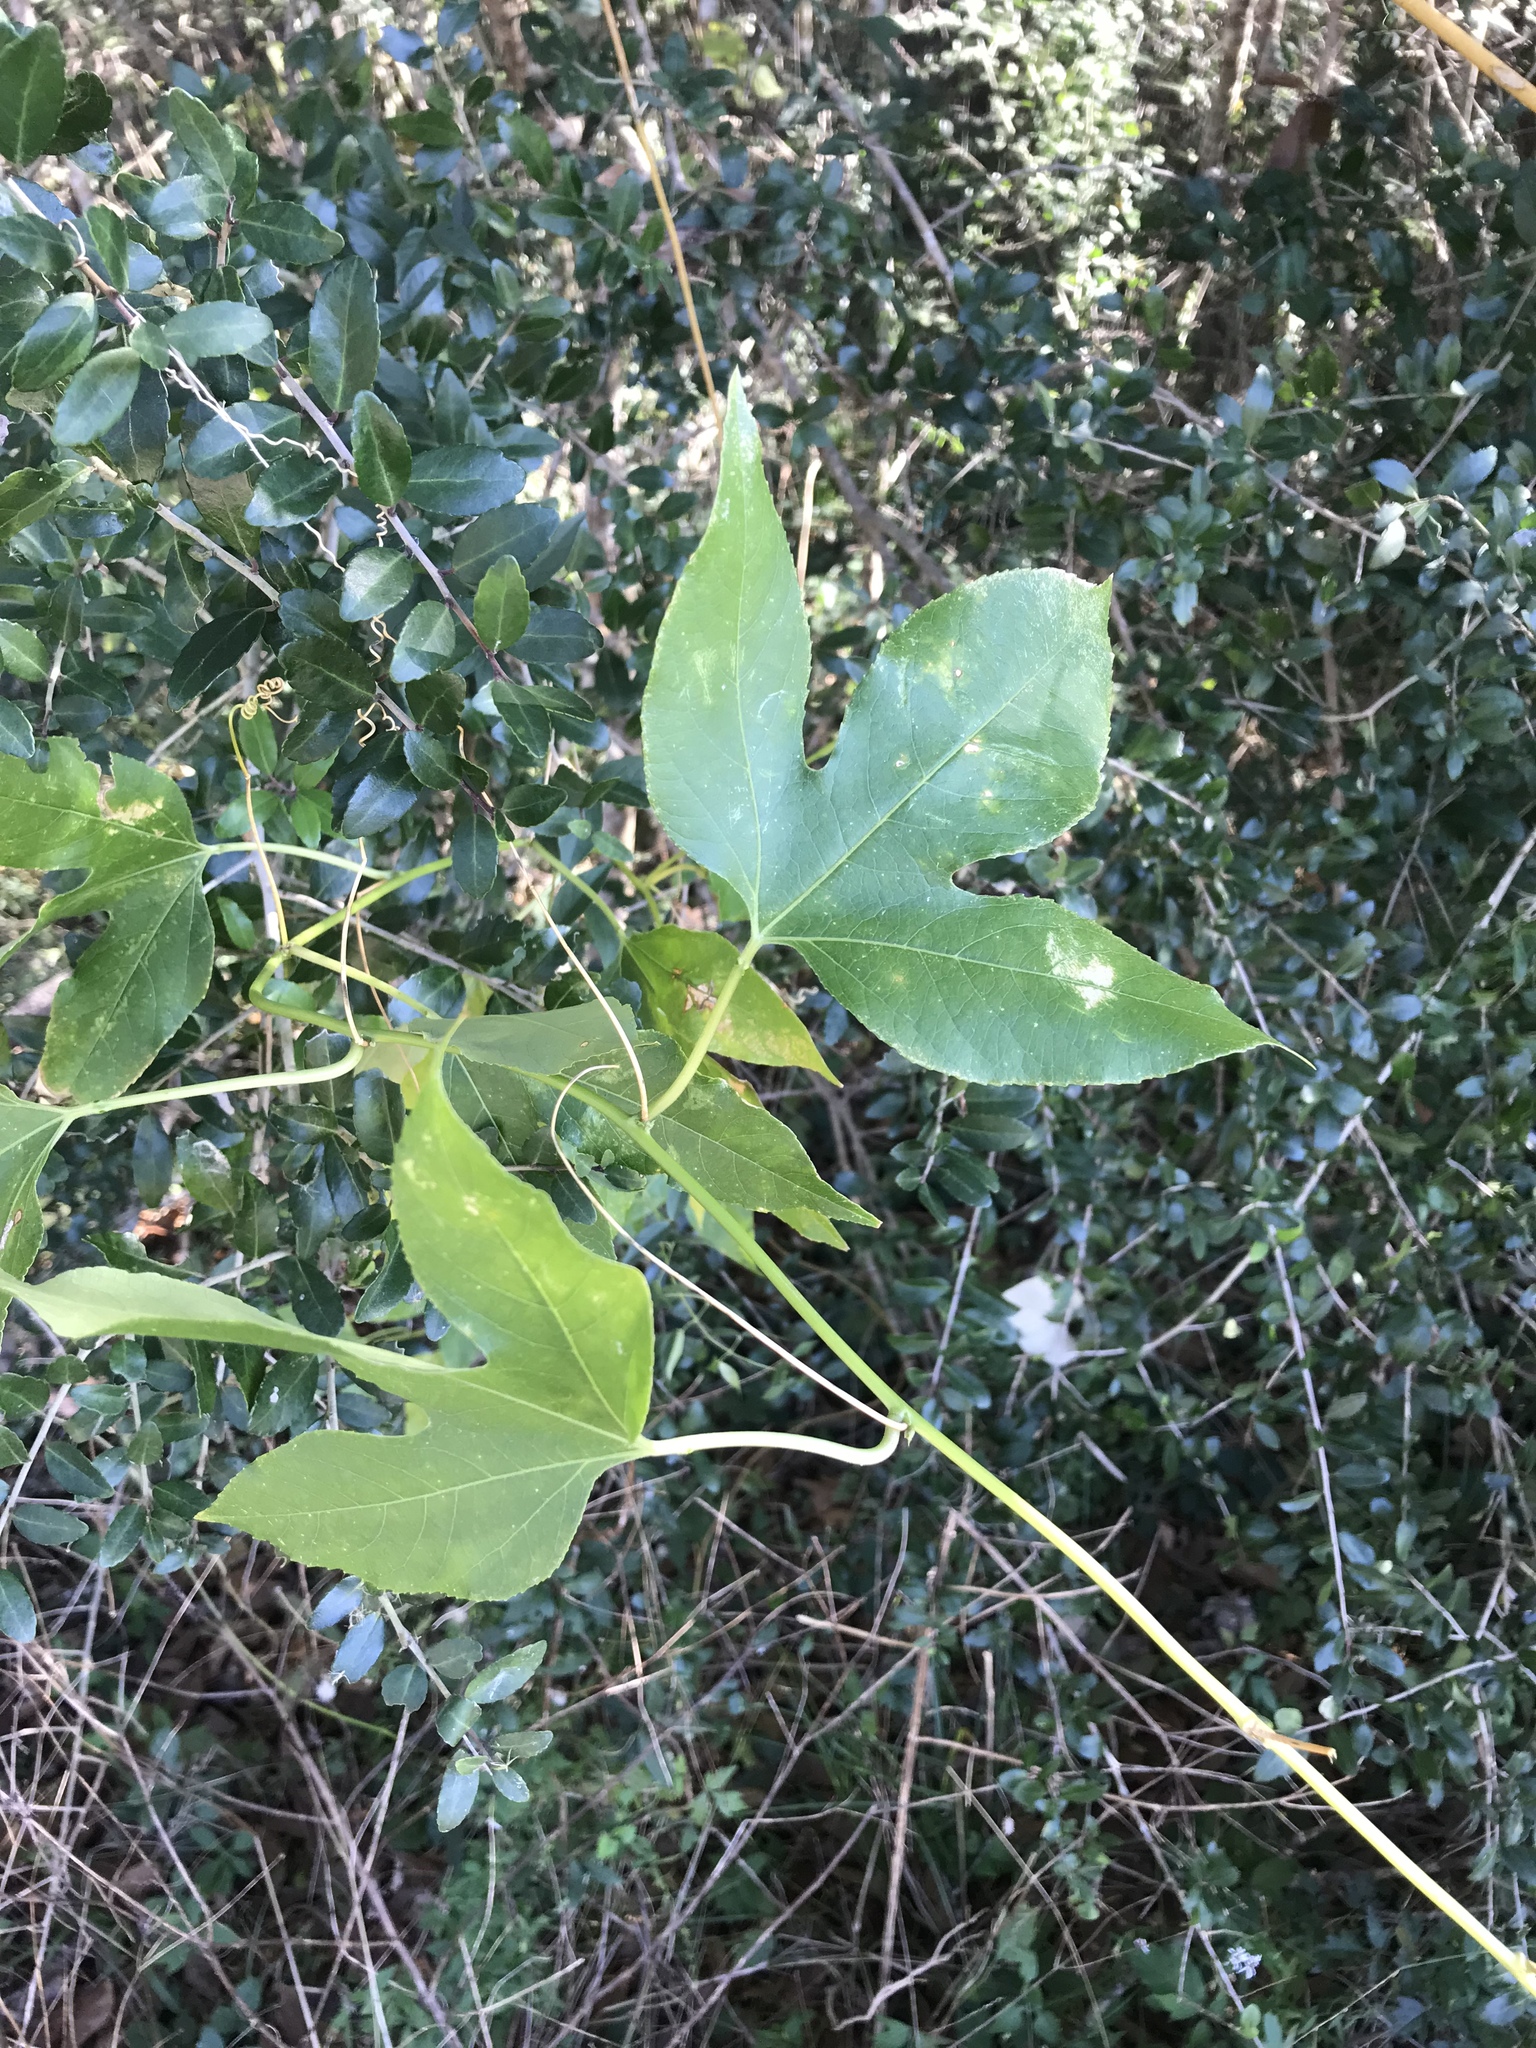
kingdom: Plantae
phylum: Tracheophyta
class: Magnoliopsida
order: Malpighiales
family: Passifloraceae
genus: Passiflora
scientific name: Passiflora incarnata
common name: Apricot-vine
